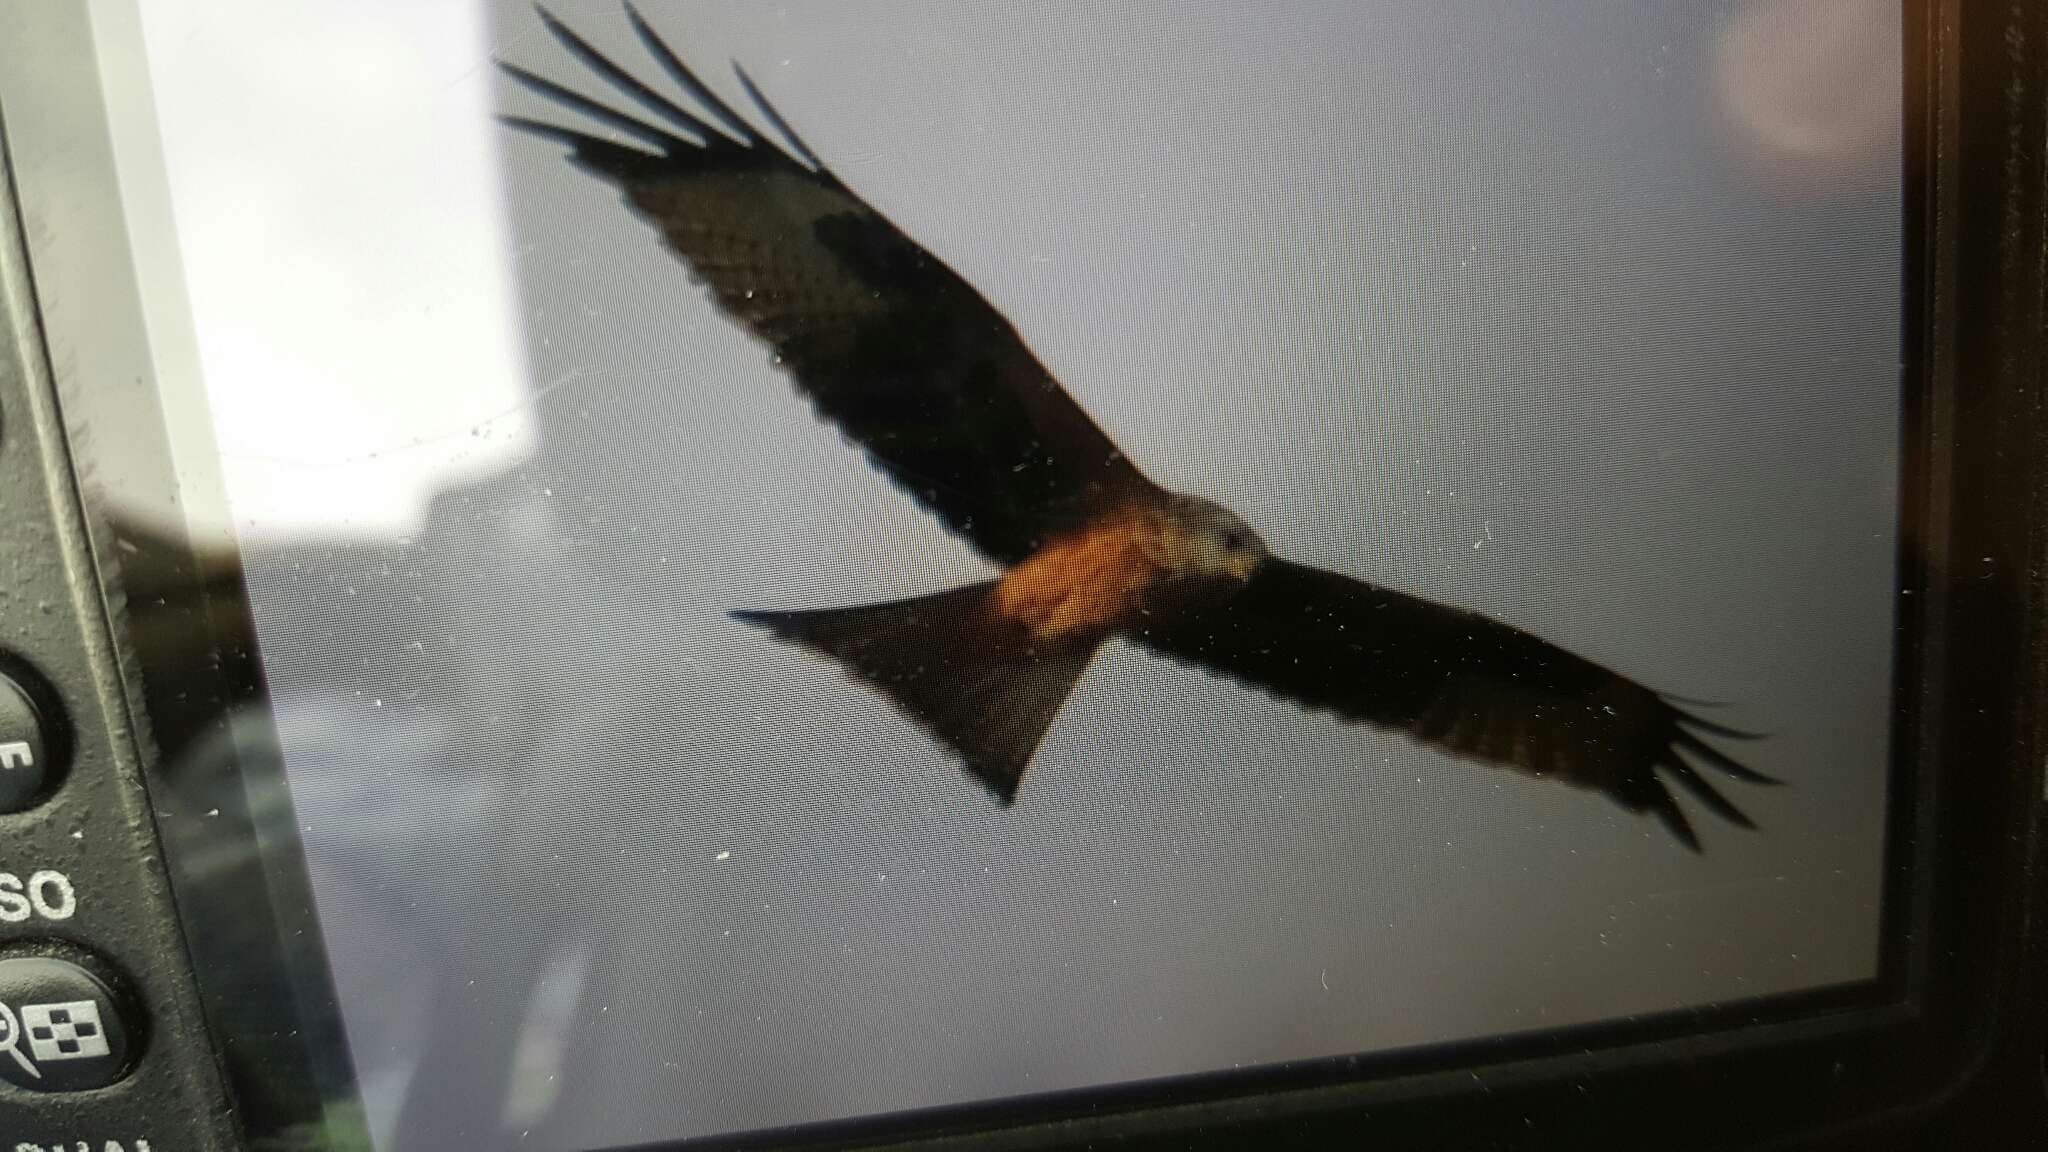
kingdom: Animalia
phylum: Chordata
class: Aves
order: Accipitriformes
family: Accipitridae
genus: Milvus
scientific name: Milvus milvus
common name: Red kite
